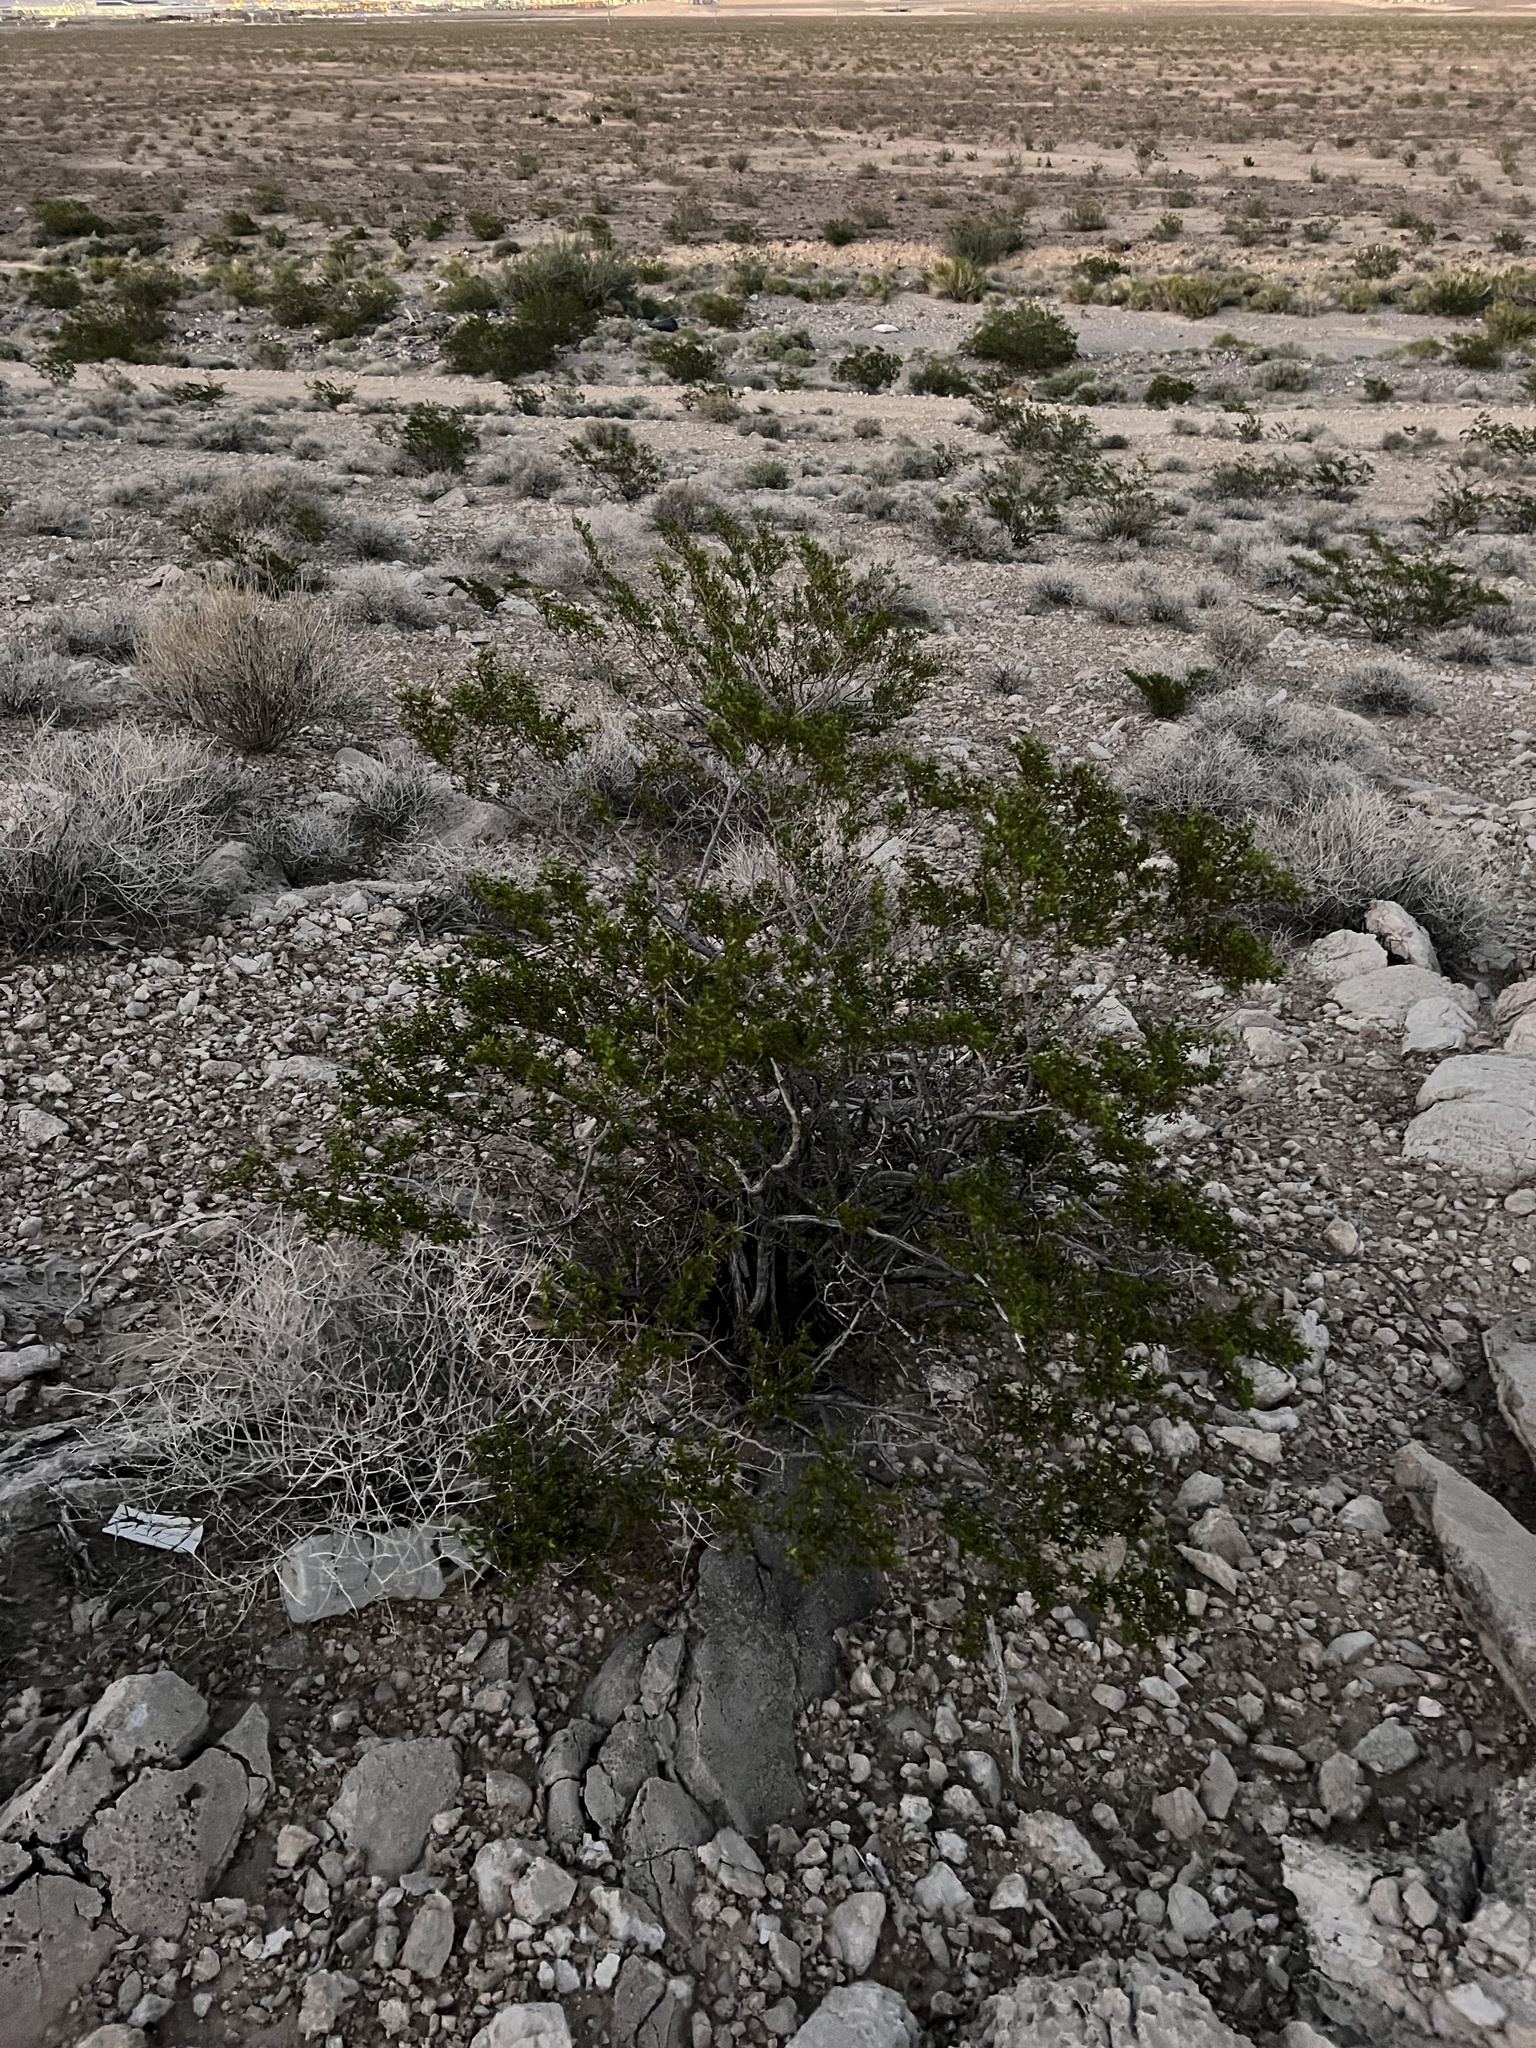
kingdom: Plantae
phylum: Tracheophyta
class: Magnoliopsida
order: Zygophyllales
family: Zygophyllaceae
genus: Larrea
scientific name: Larrea tridentata
